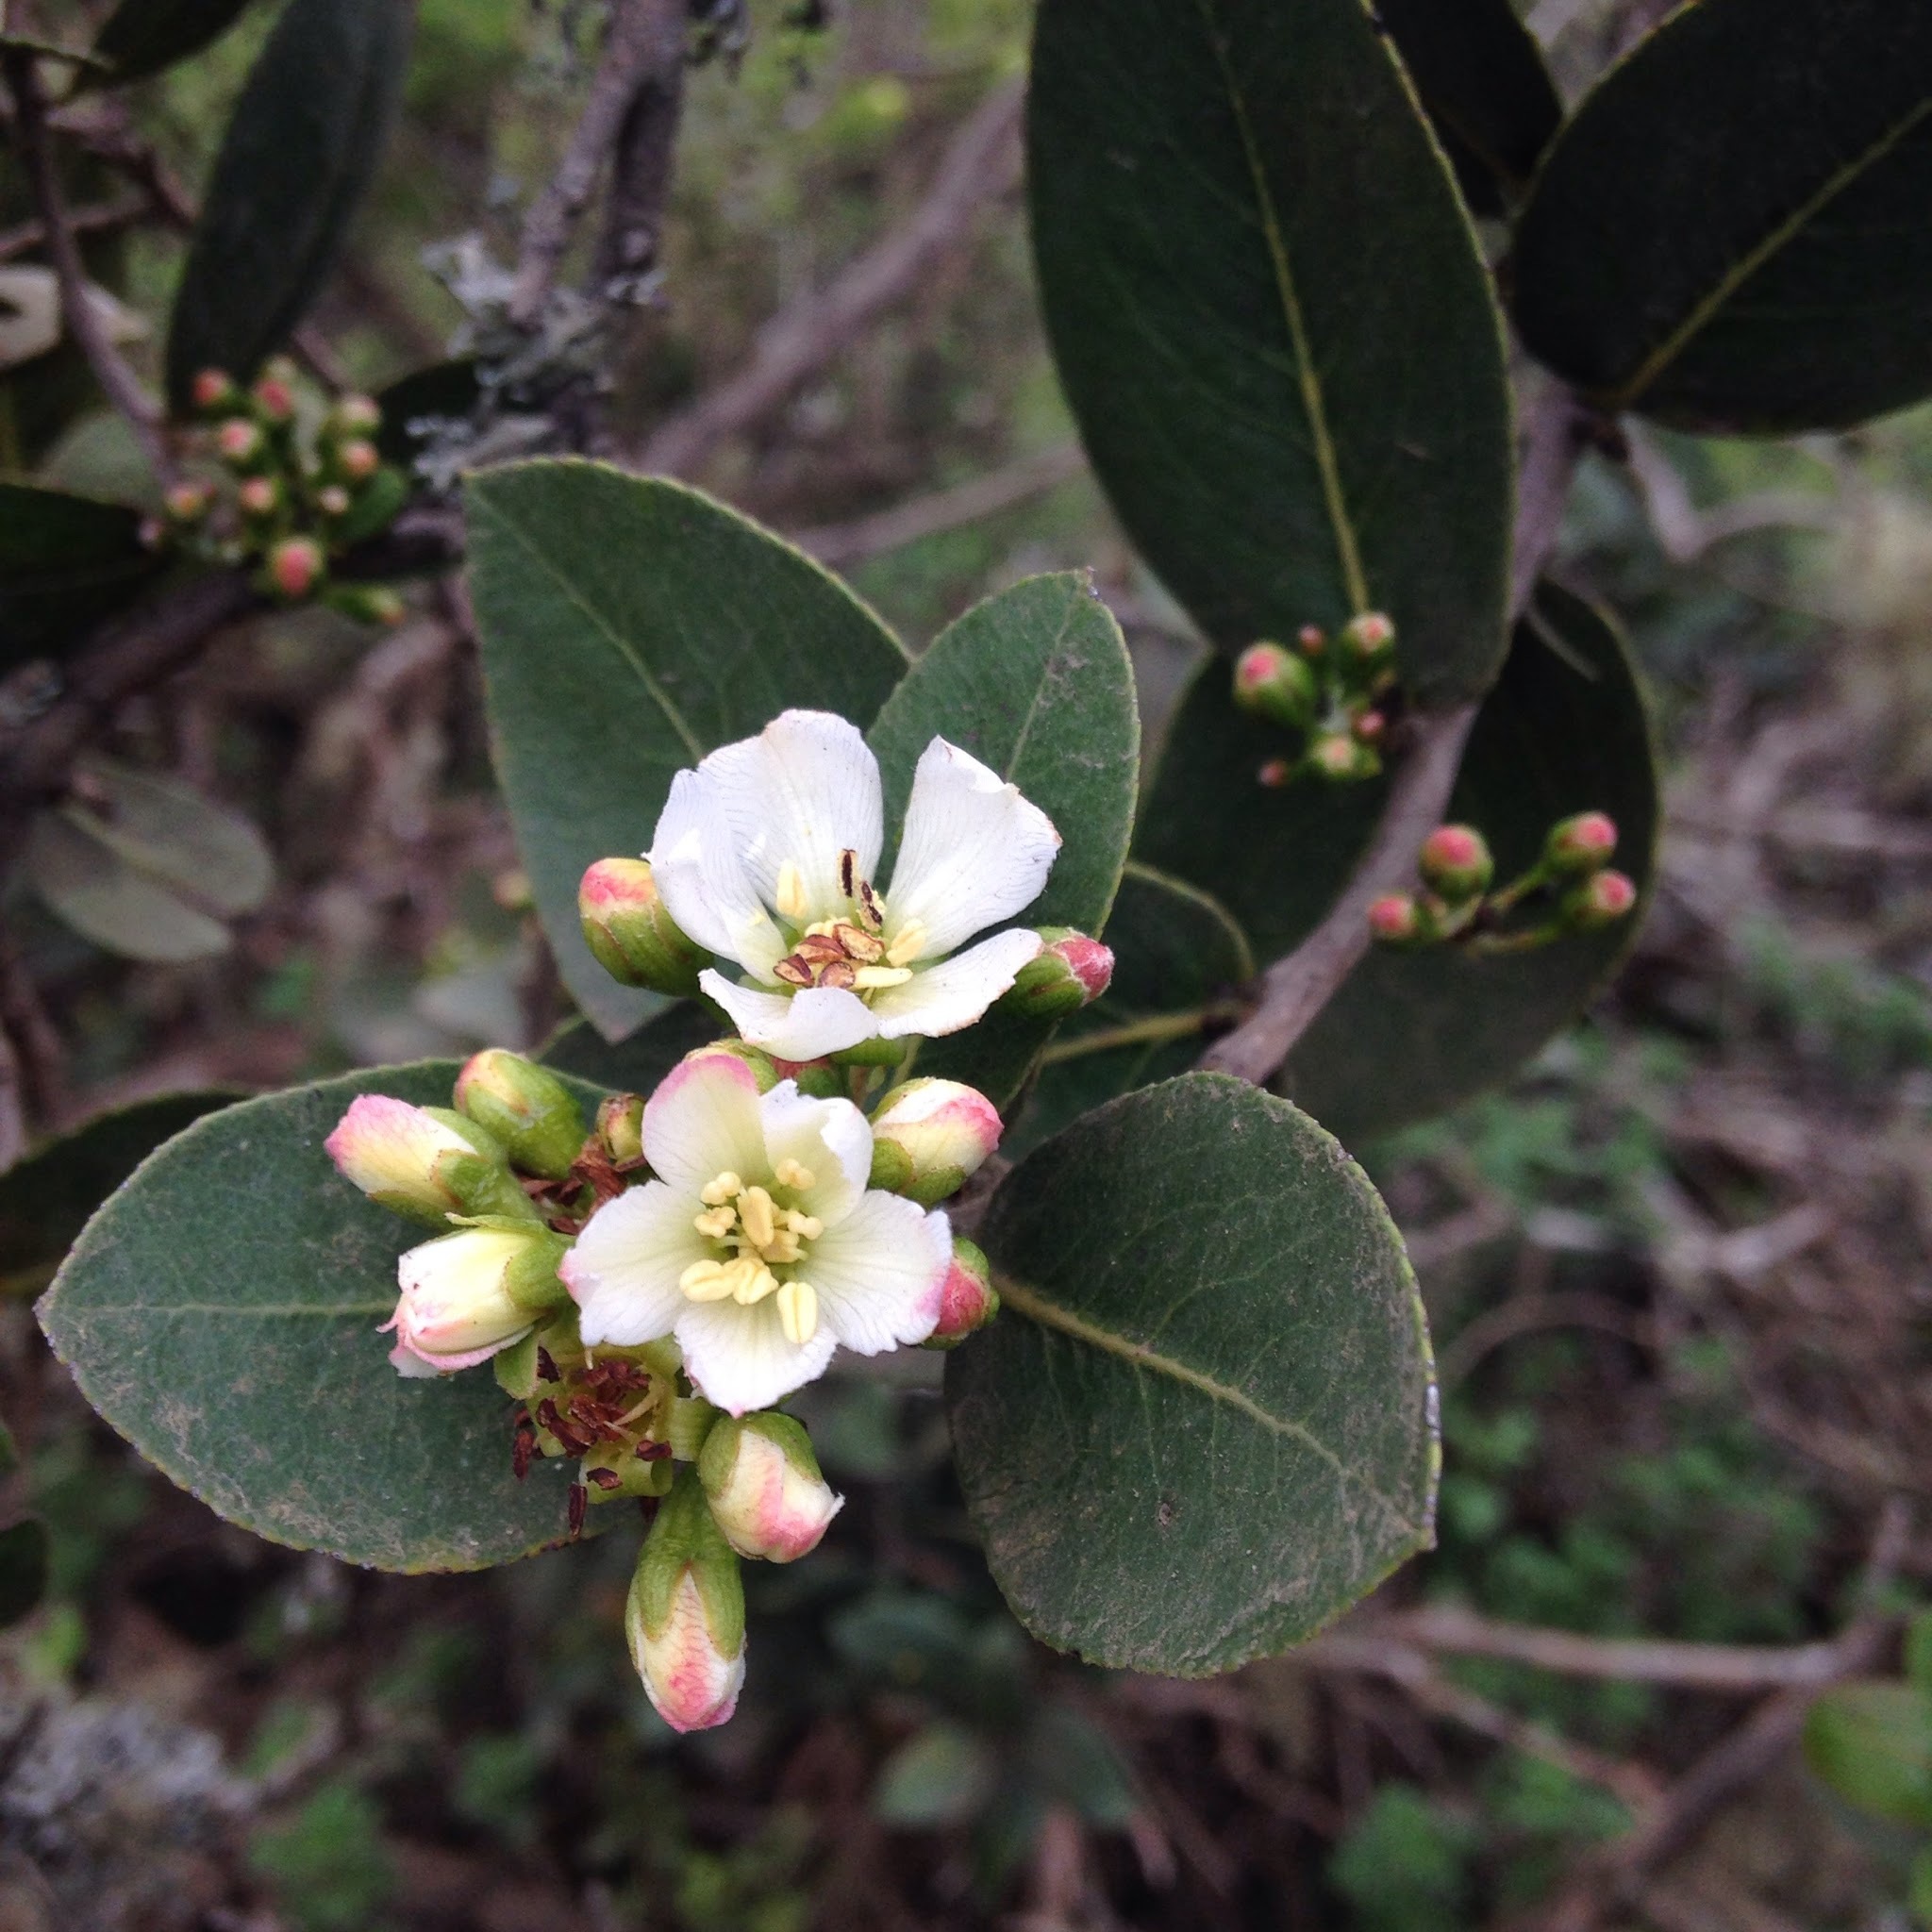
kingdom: Plantae
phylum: Tracheophyta
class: Magnoliopsida
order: Rosales
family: Rosaceae
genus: Kageneckia
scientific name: Kageneckia oblonga
